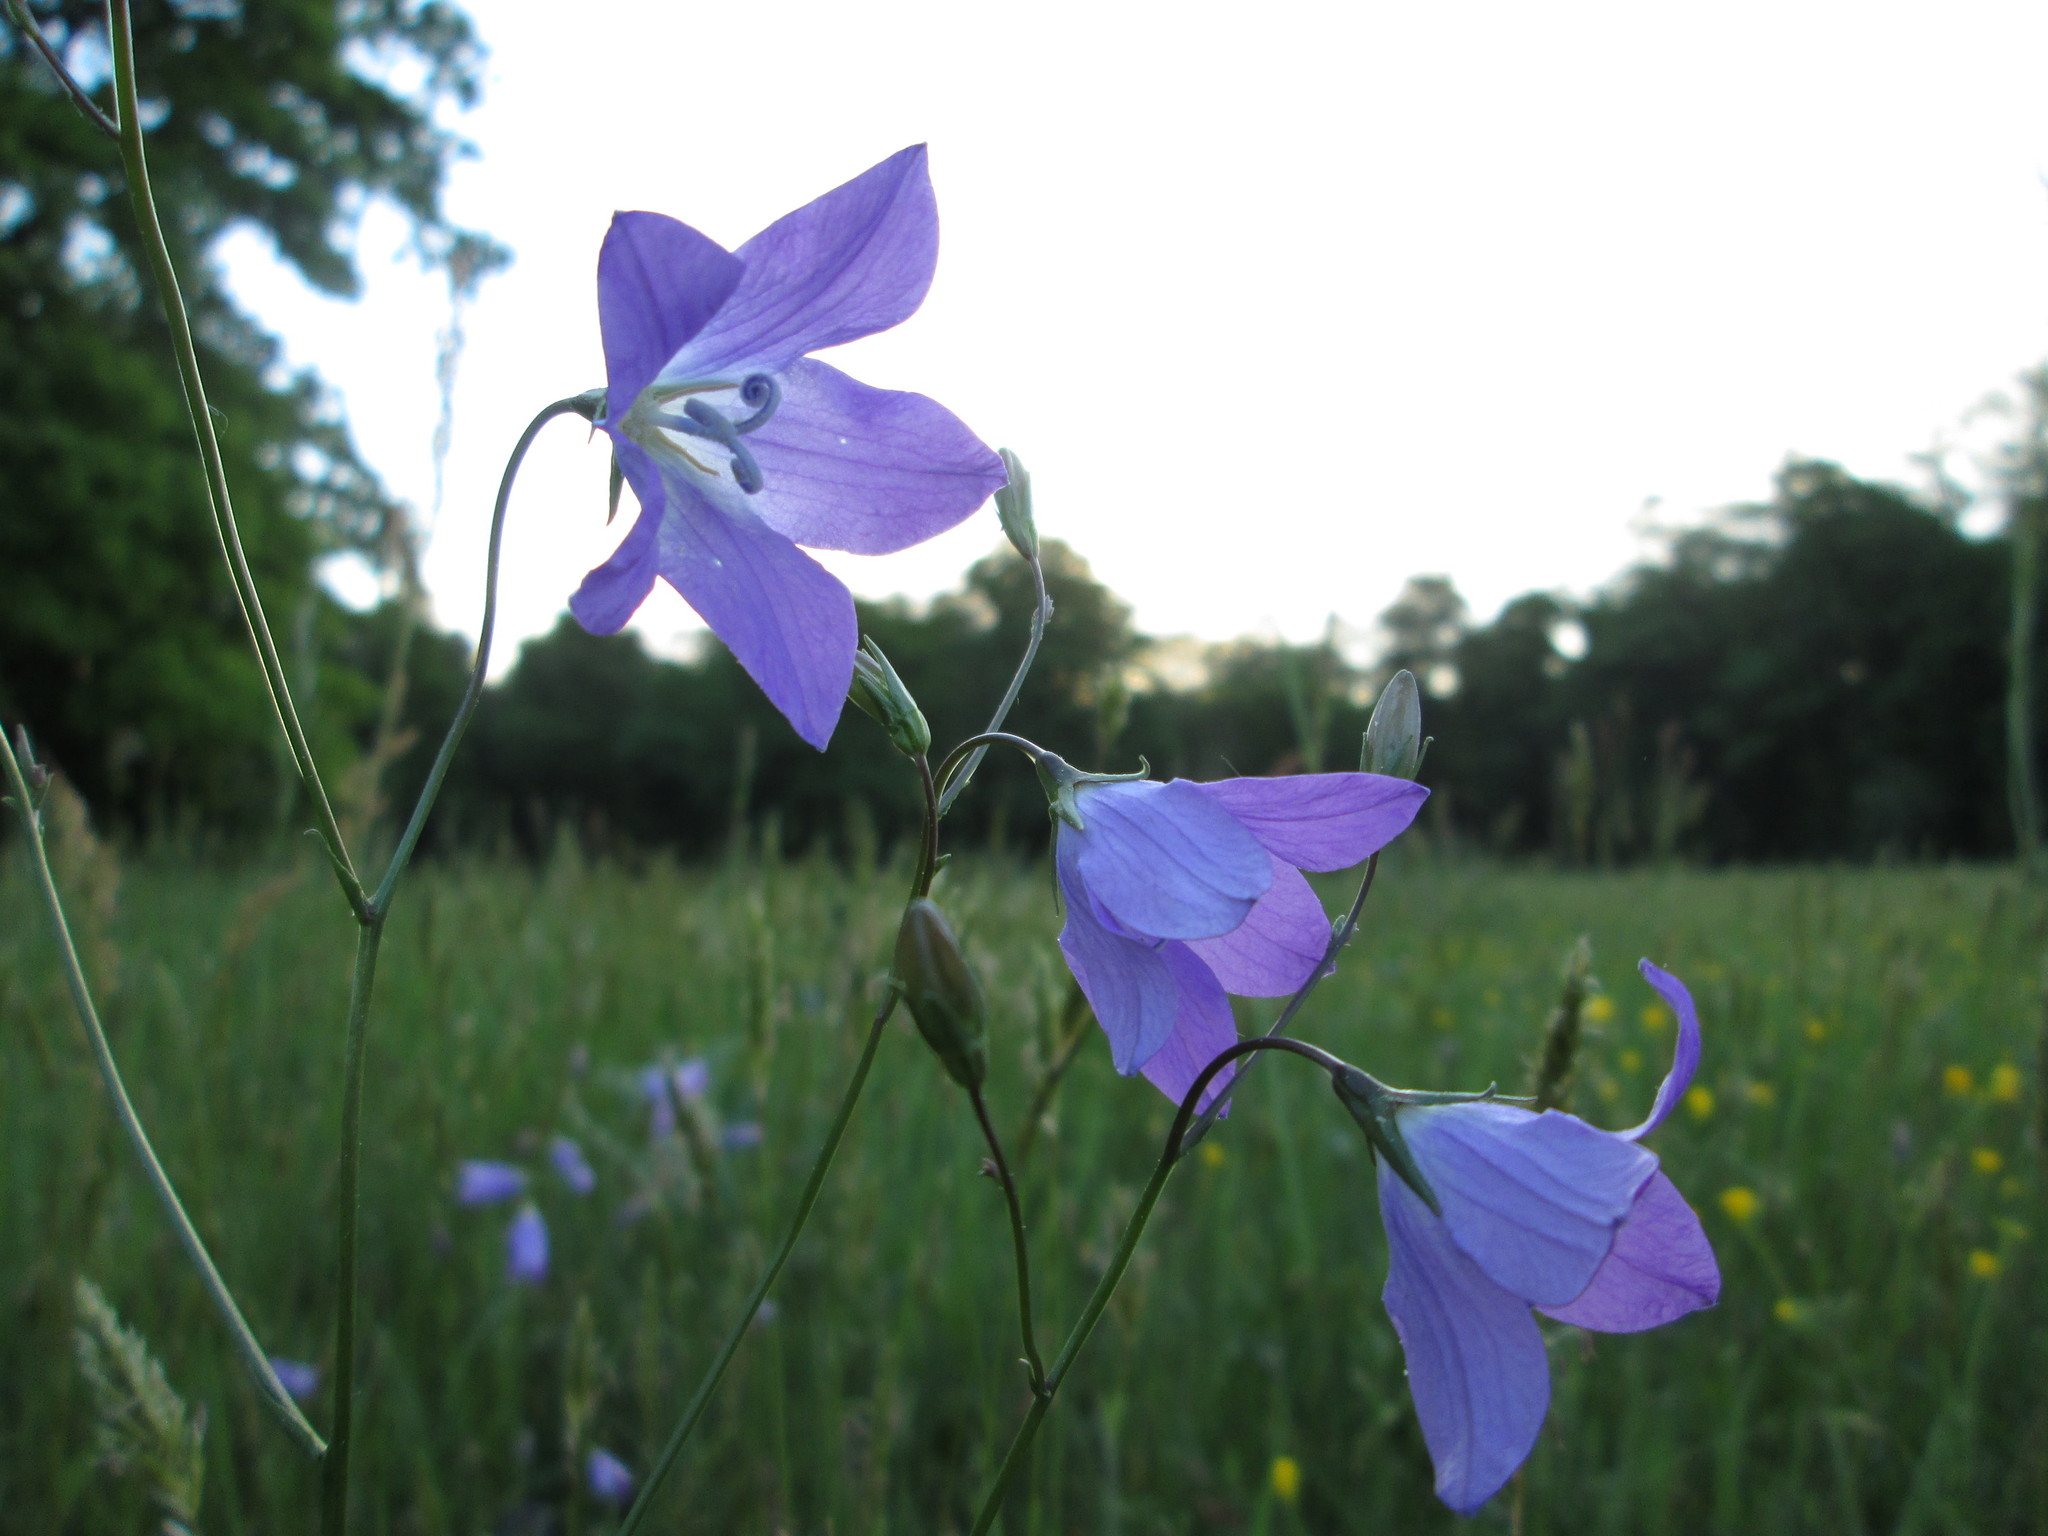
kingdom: Plantae
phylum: Tracheophyta
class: Magnoliopsida
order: Asterales
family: Campanulaceae
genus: Campanula
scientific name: Campanula patula
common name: Spreading bellflower
